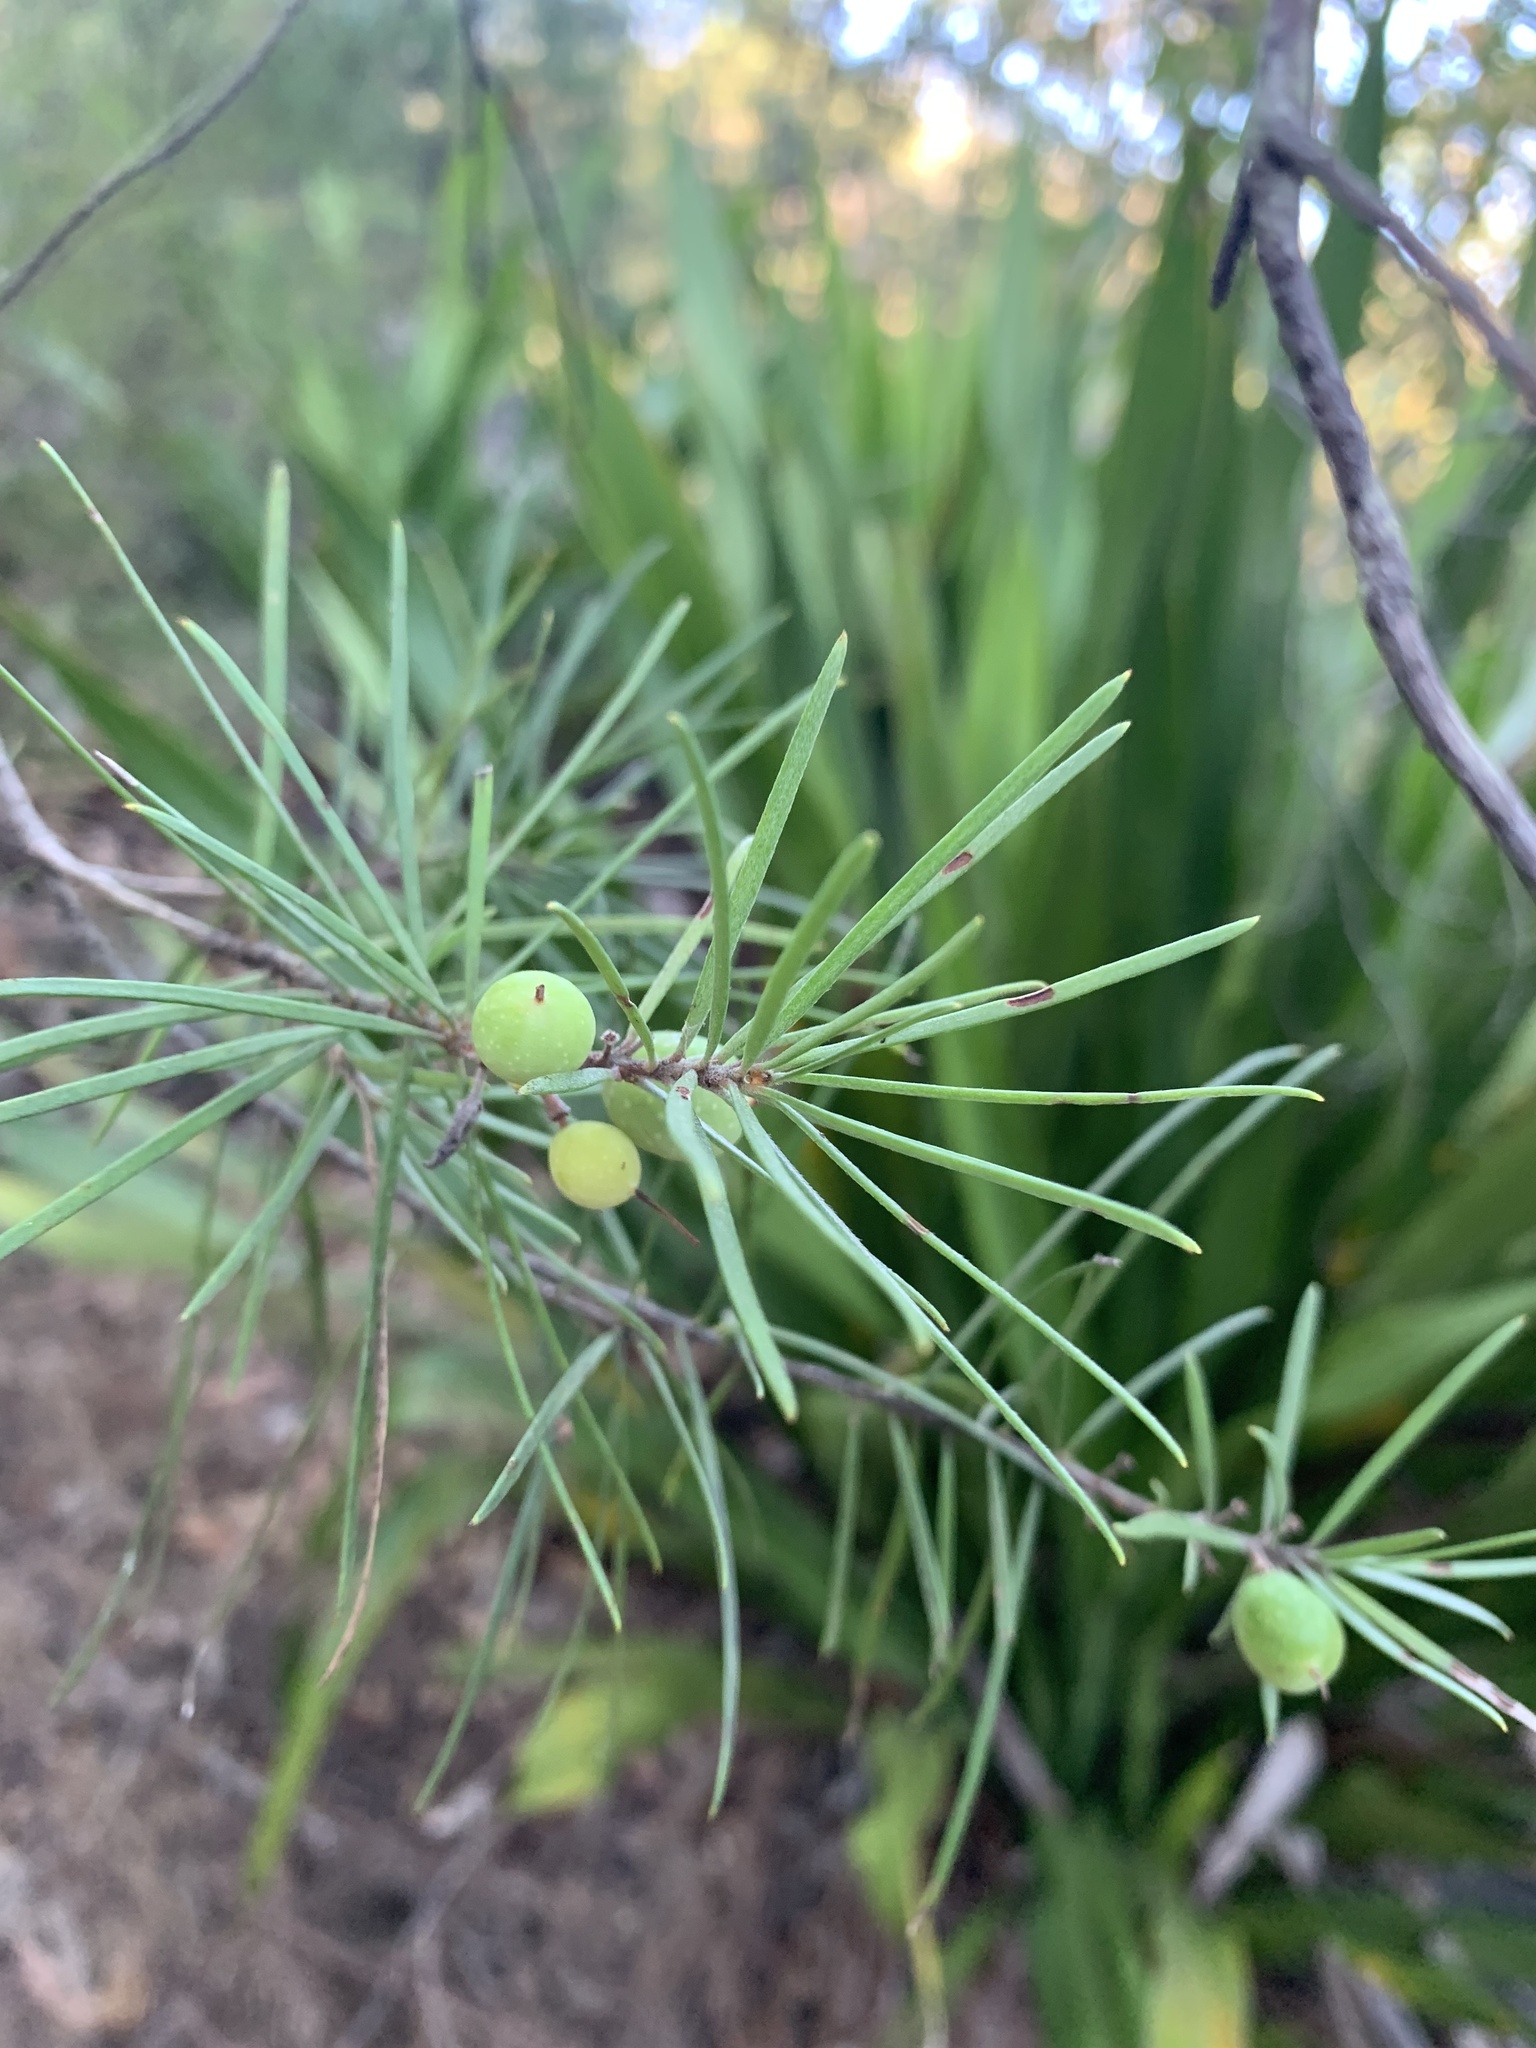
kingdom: Plantae
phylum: Tracheophyta
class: Magnoliopsida
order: Proteales
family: Proteaceae
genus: Persoonia
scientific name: Persoonia linearis
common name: Narrow-leaf geebung
